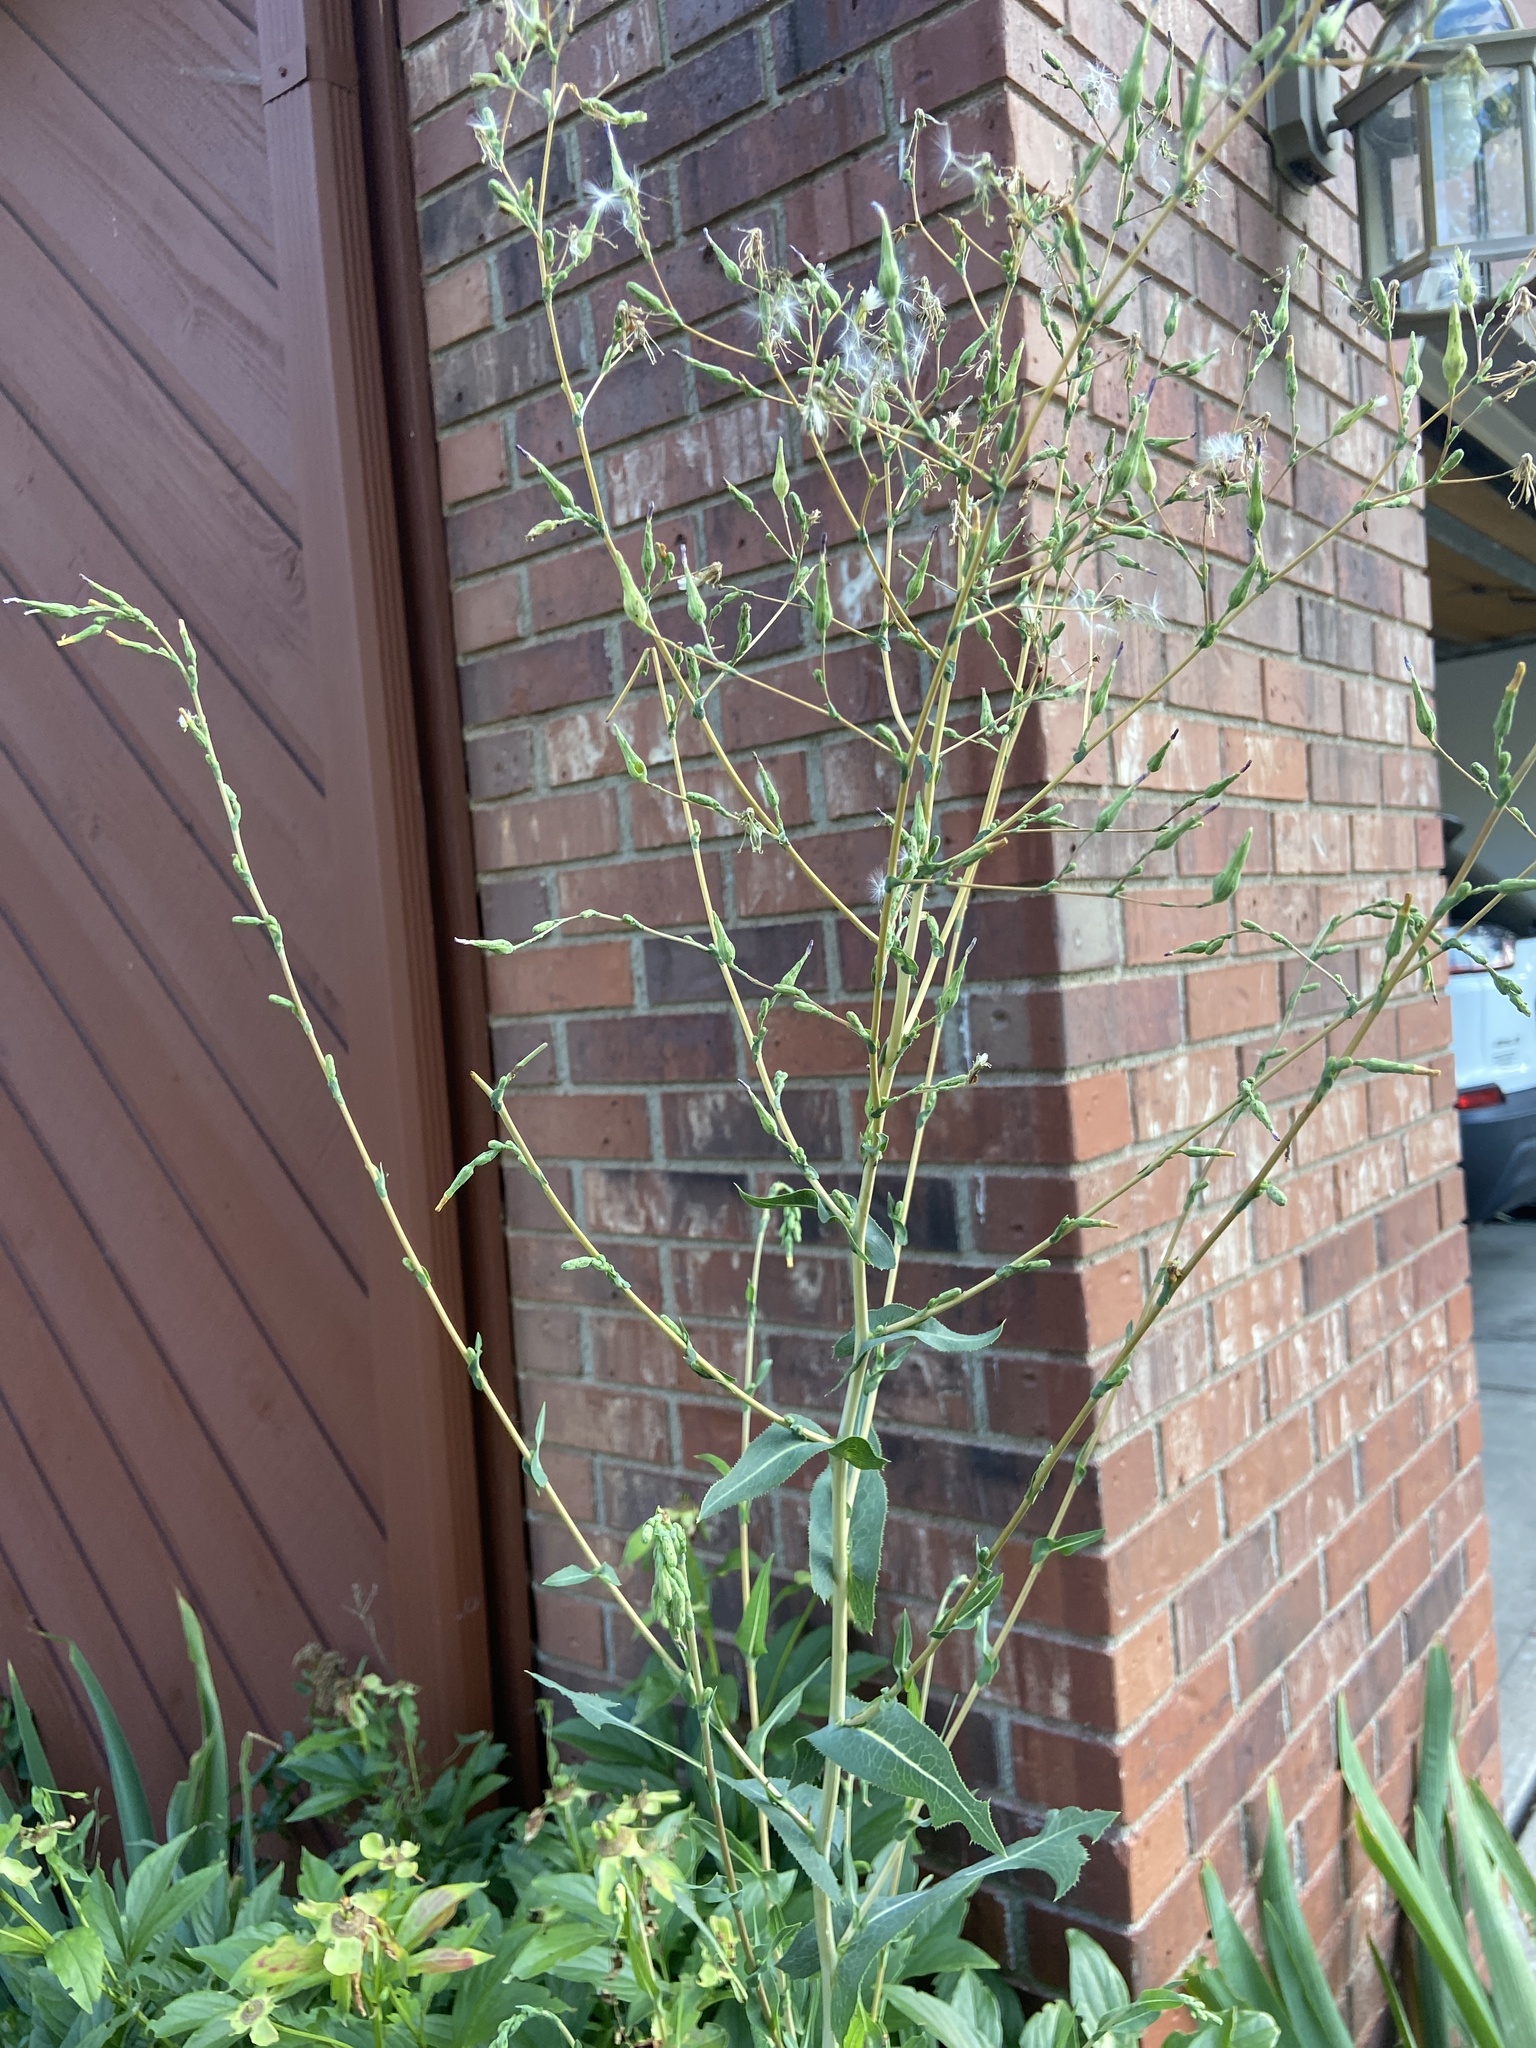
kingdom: Plantae
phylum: Tracheophyta
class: Magnoliopsida
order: Asterales
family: Asteraceae
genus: Sonchus
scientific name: Sonchus asper
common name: Prickly sow-thistle
